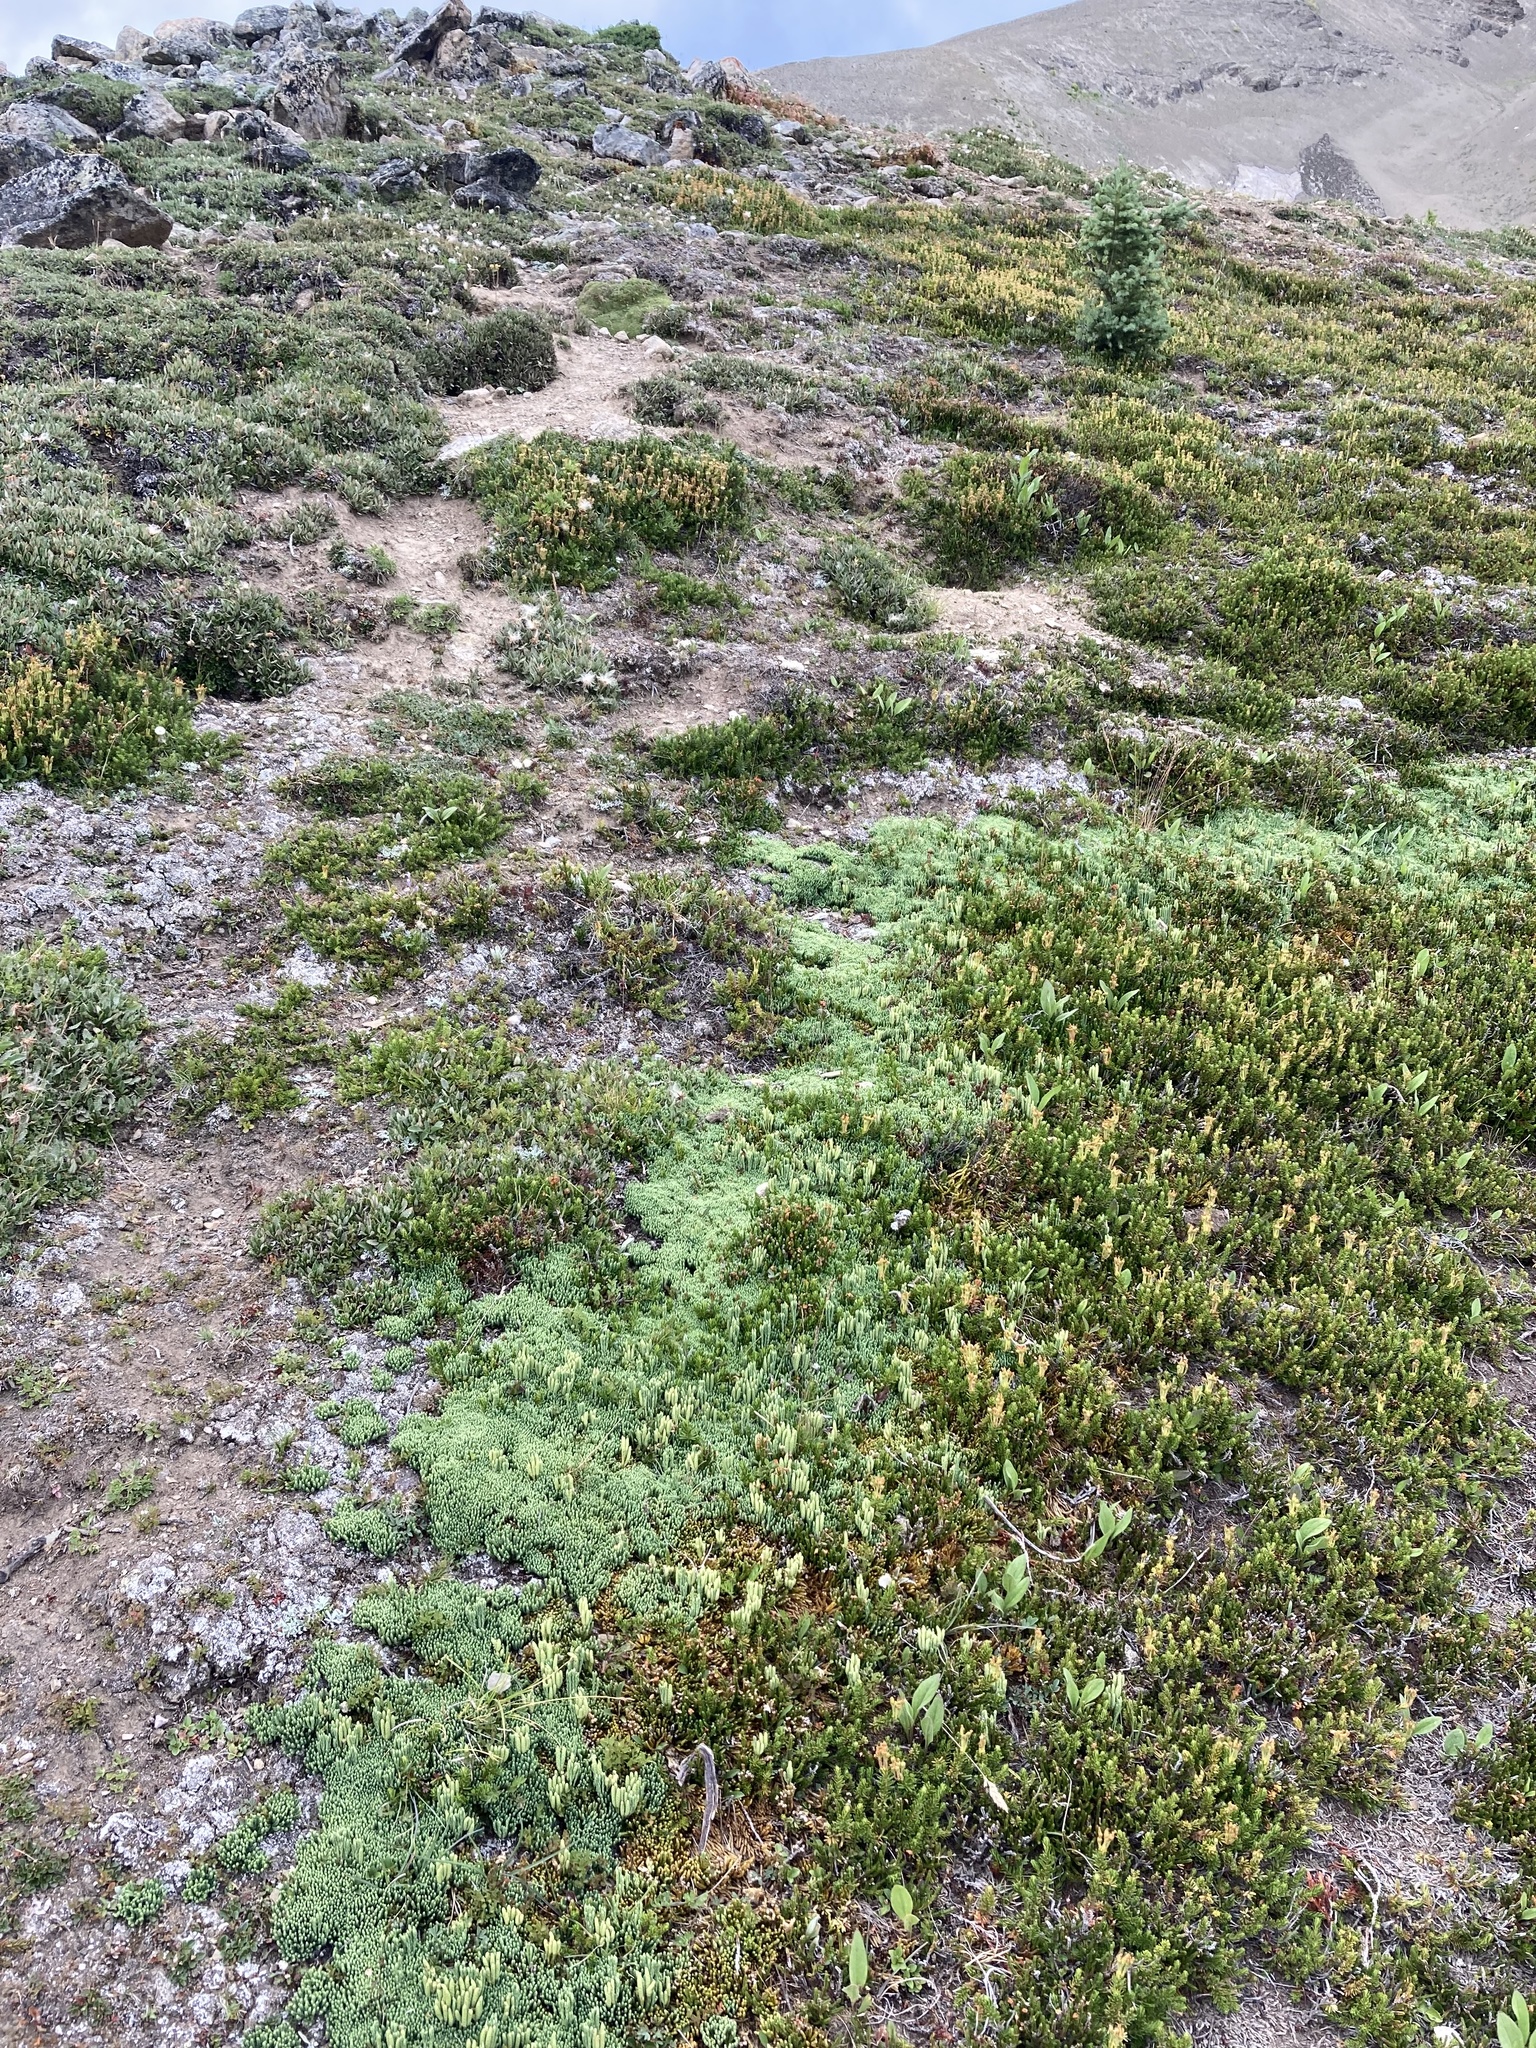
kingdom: Plantae
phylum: Tracheophyta
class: Lycopodiopsida
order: Lycopodiales
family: Lycopodiaceae
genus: Diphasiastrum
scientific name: Diphasiastrum sitchense
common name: Alaska clubmoss
